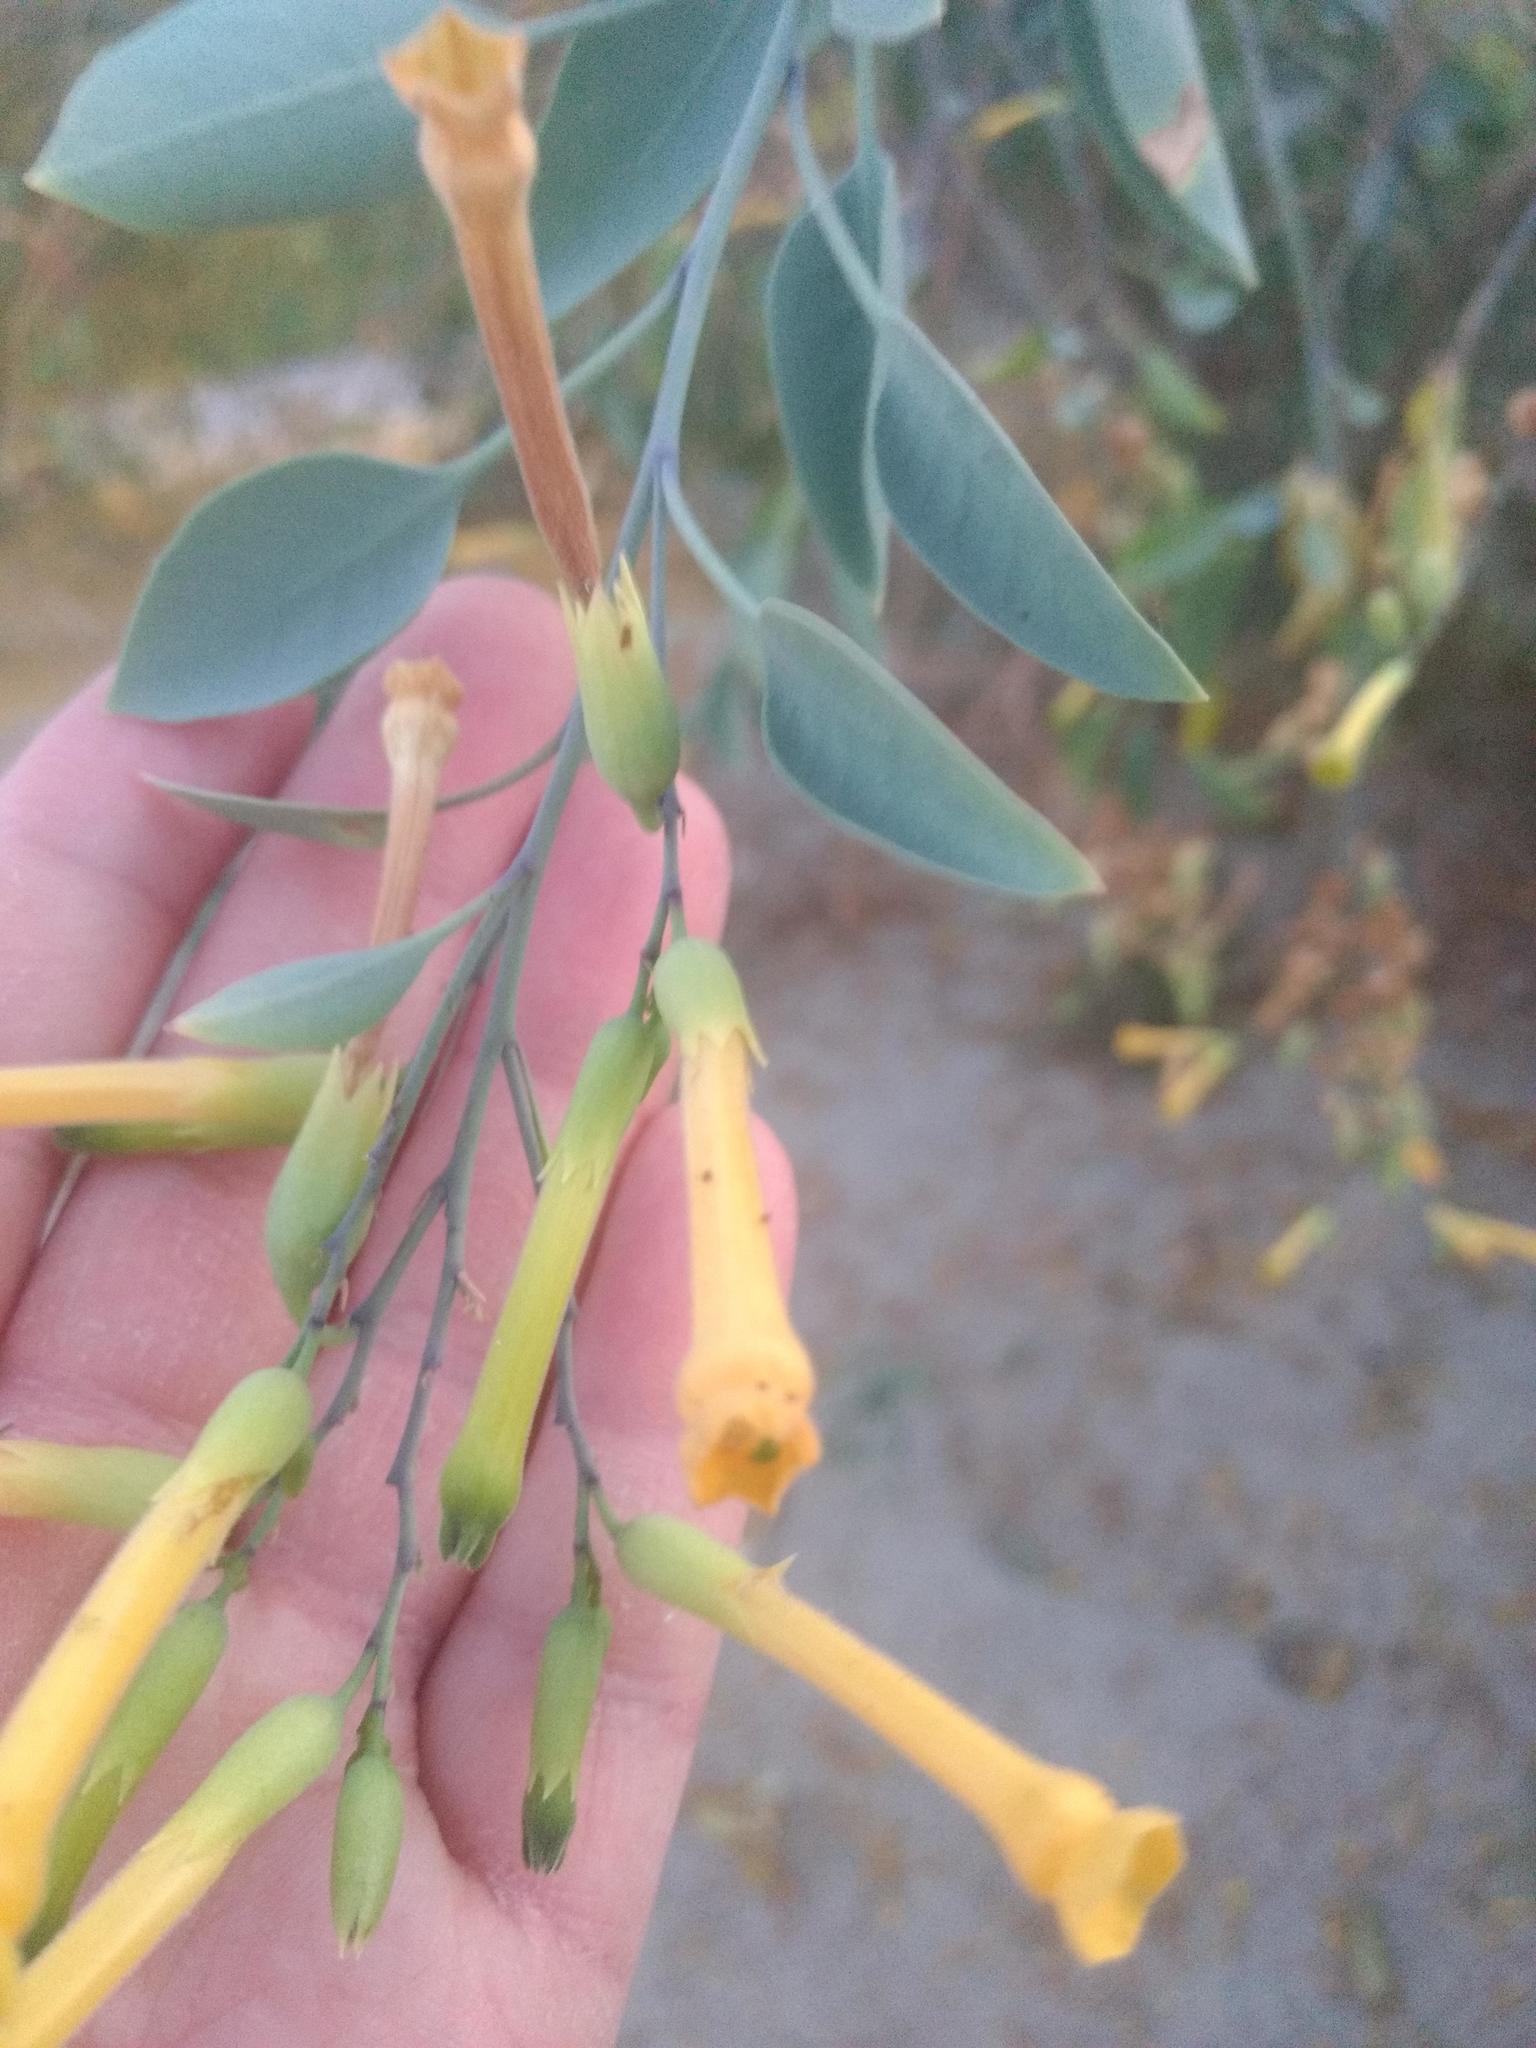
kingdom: Plantae
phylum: Tracheophyta
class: Magnoliopsida
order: Solanales
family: Solanaceae
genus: Nicotiana
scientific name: Nicotiana glauca
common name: Tree tobacco
